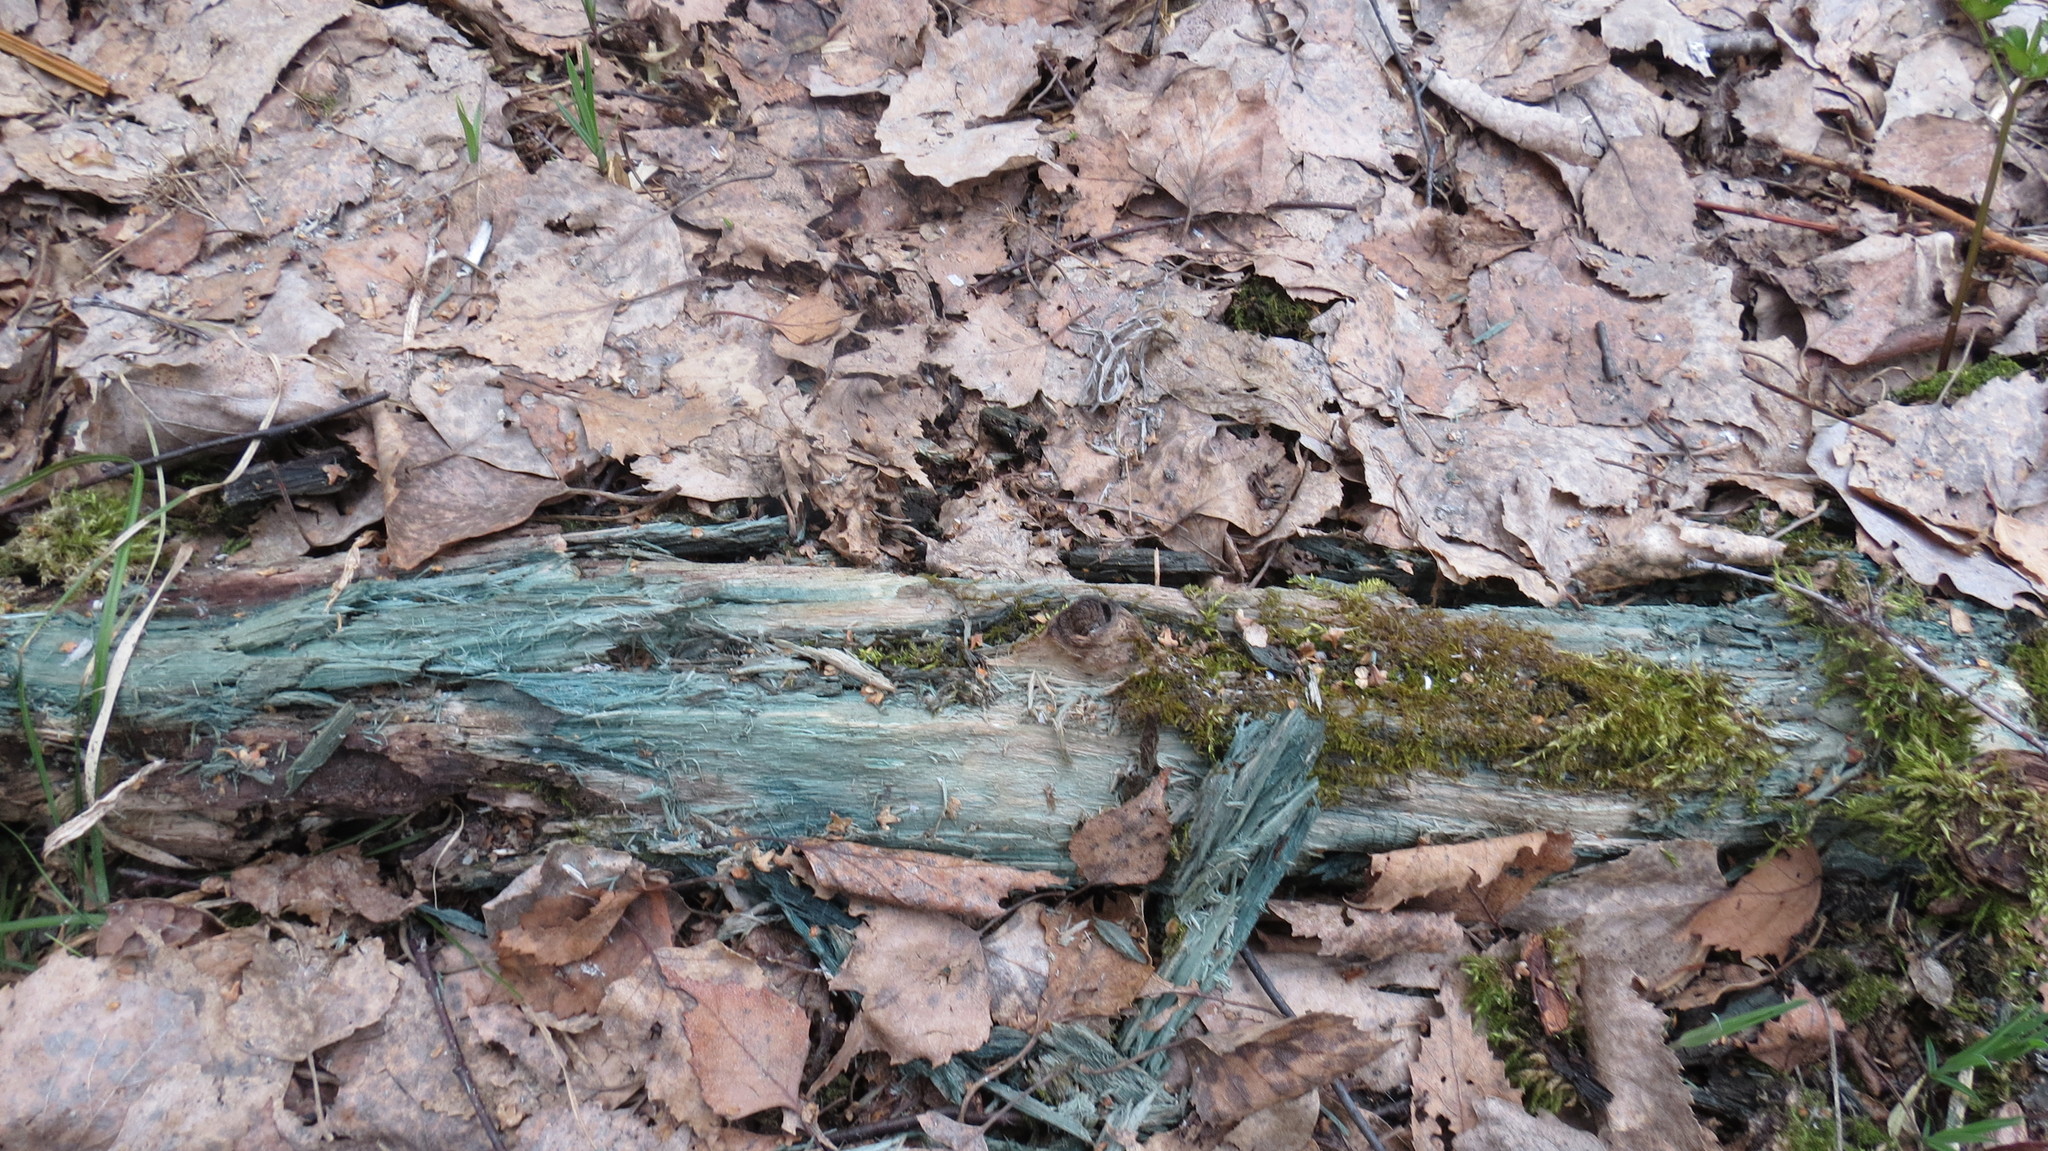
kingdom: Fungi
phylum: Ascomycota
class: Leotiomycetes
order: Helotiales
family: Chlorociboriaceae
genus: Chlorociboria
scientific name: Chlorociboria
